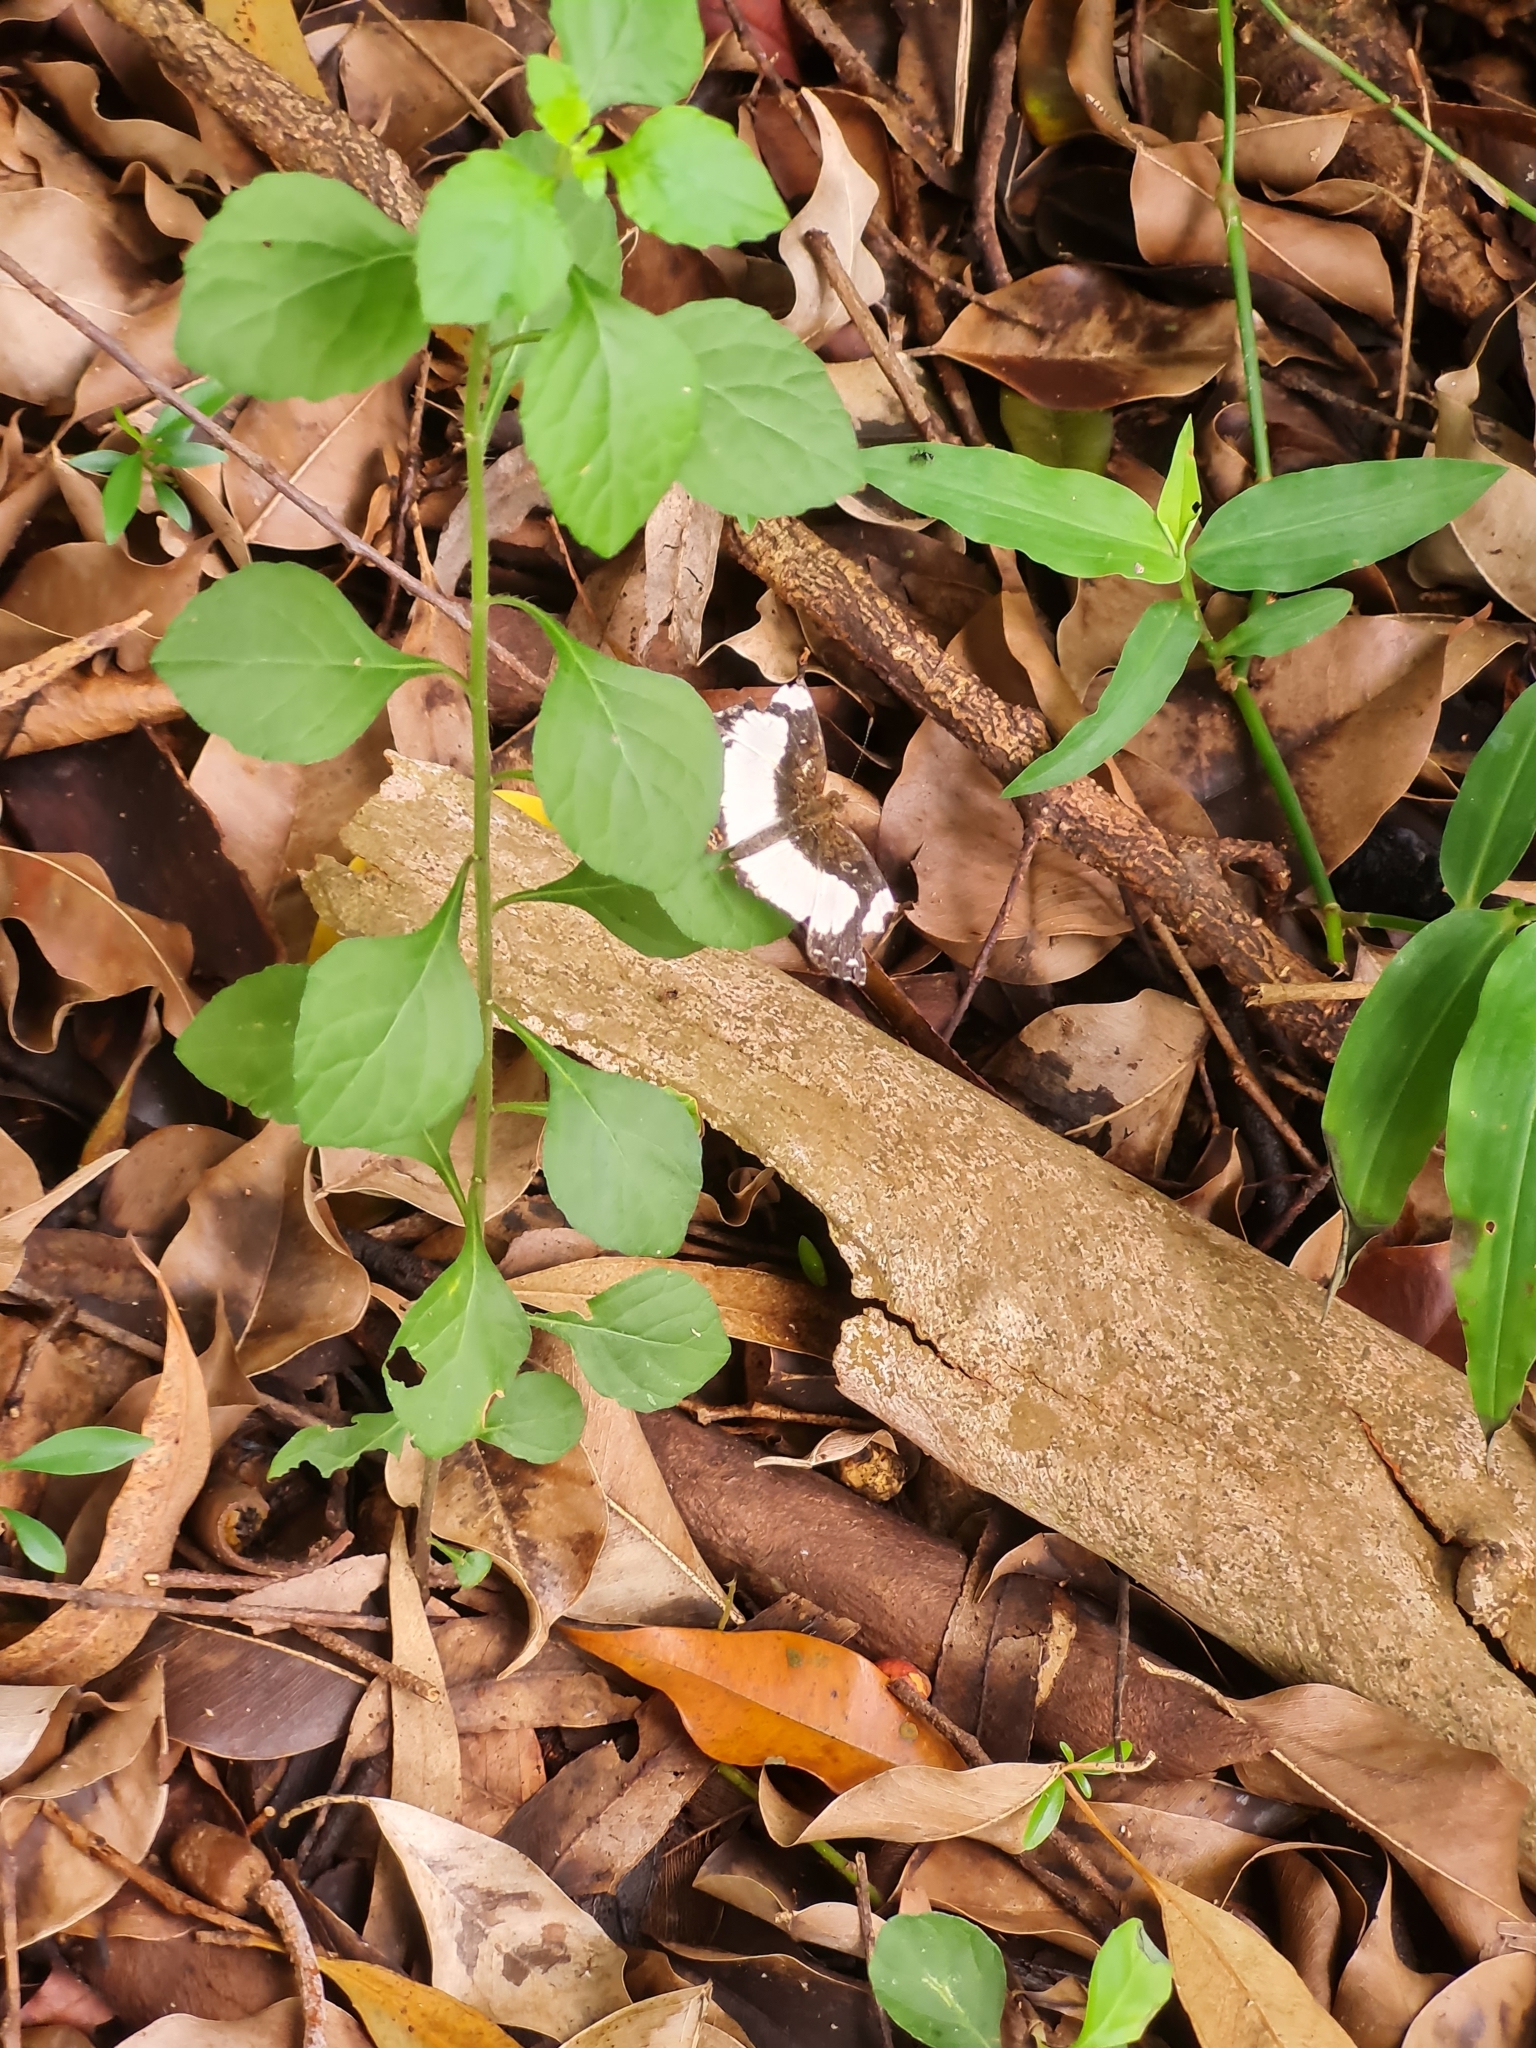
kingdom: Animalia
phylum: Arthropoda
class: Insecta
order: Lepidoptera
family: Nymphalidae
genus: Janatella
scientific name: Janatella leucodesma
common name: Whitened crescent
